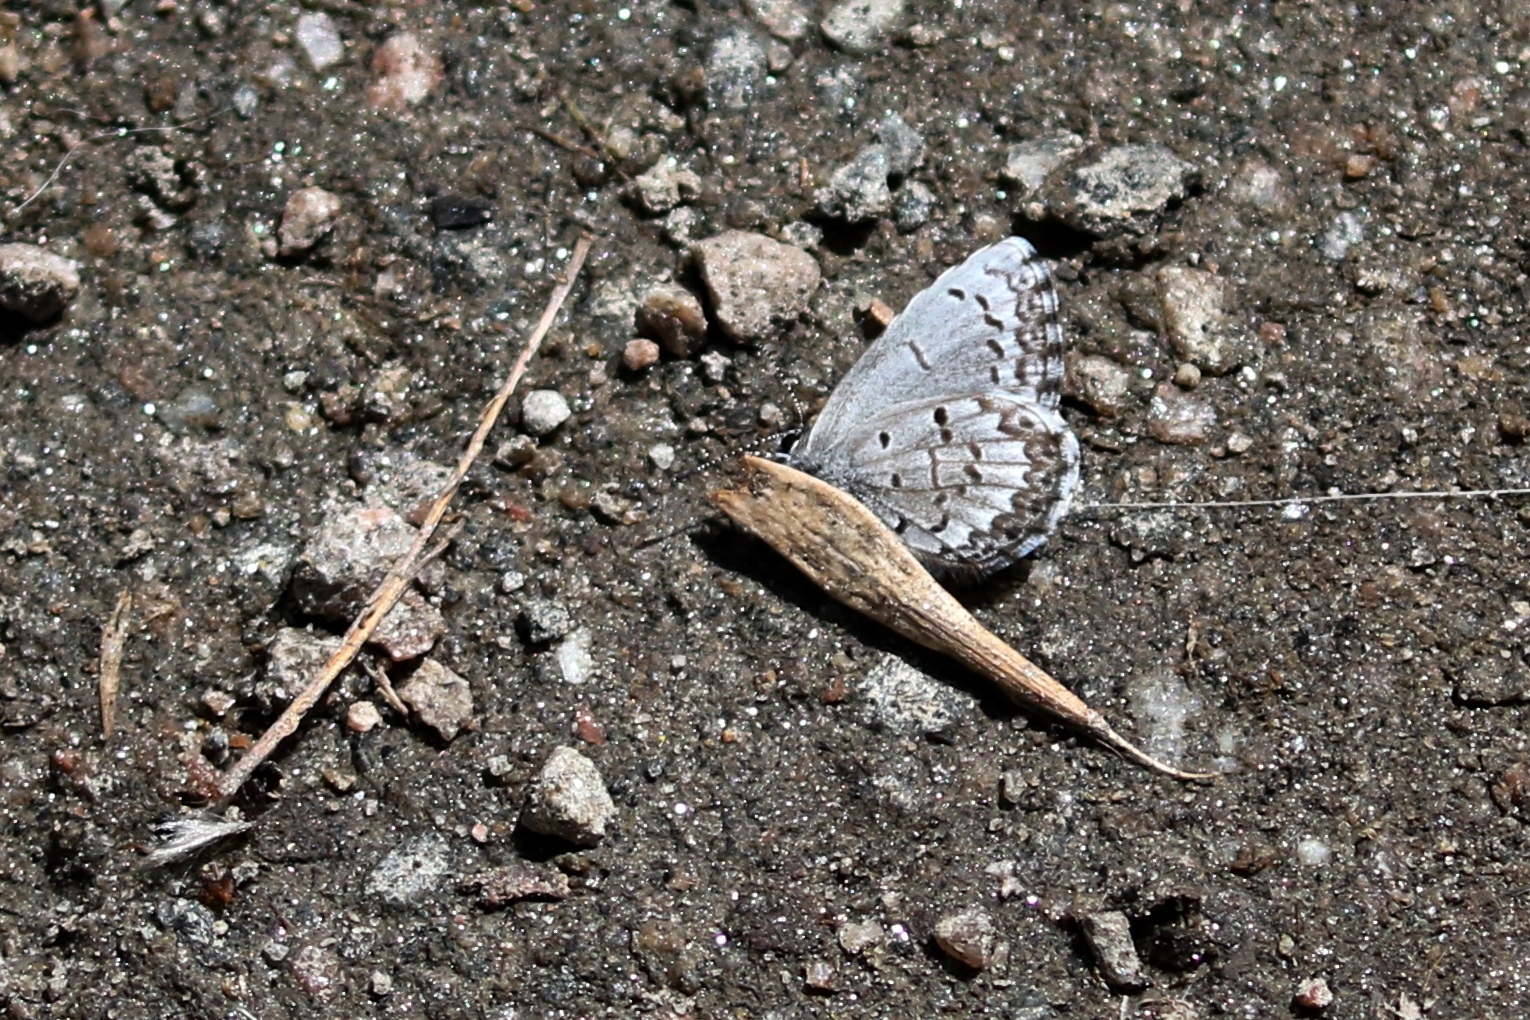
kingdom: Animalia
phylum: Arthropoda
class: Insecta
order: Lepidoptera
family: Lycaenidae
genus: Celastrina
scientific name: Celastrina lucia
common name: Lucia azure
